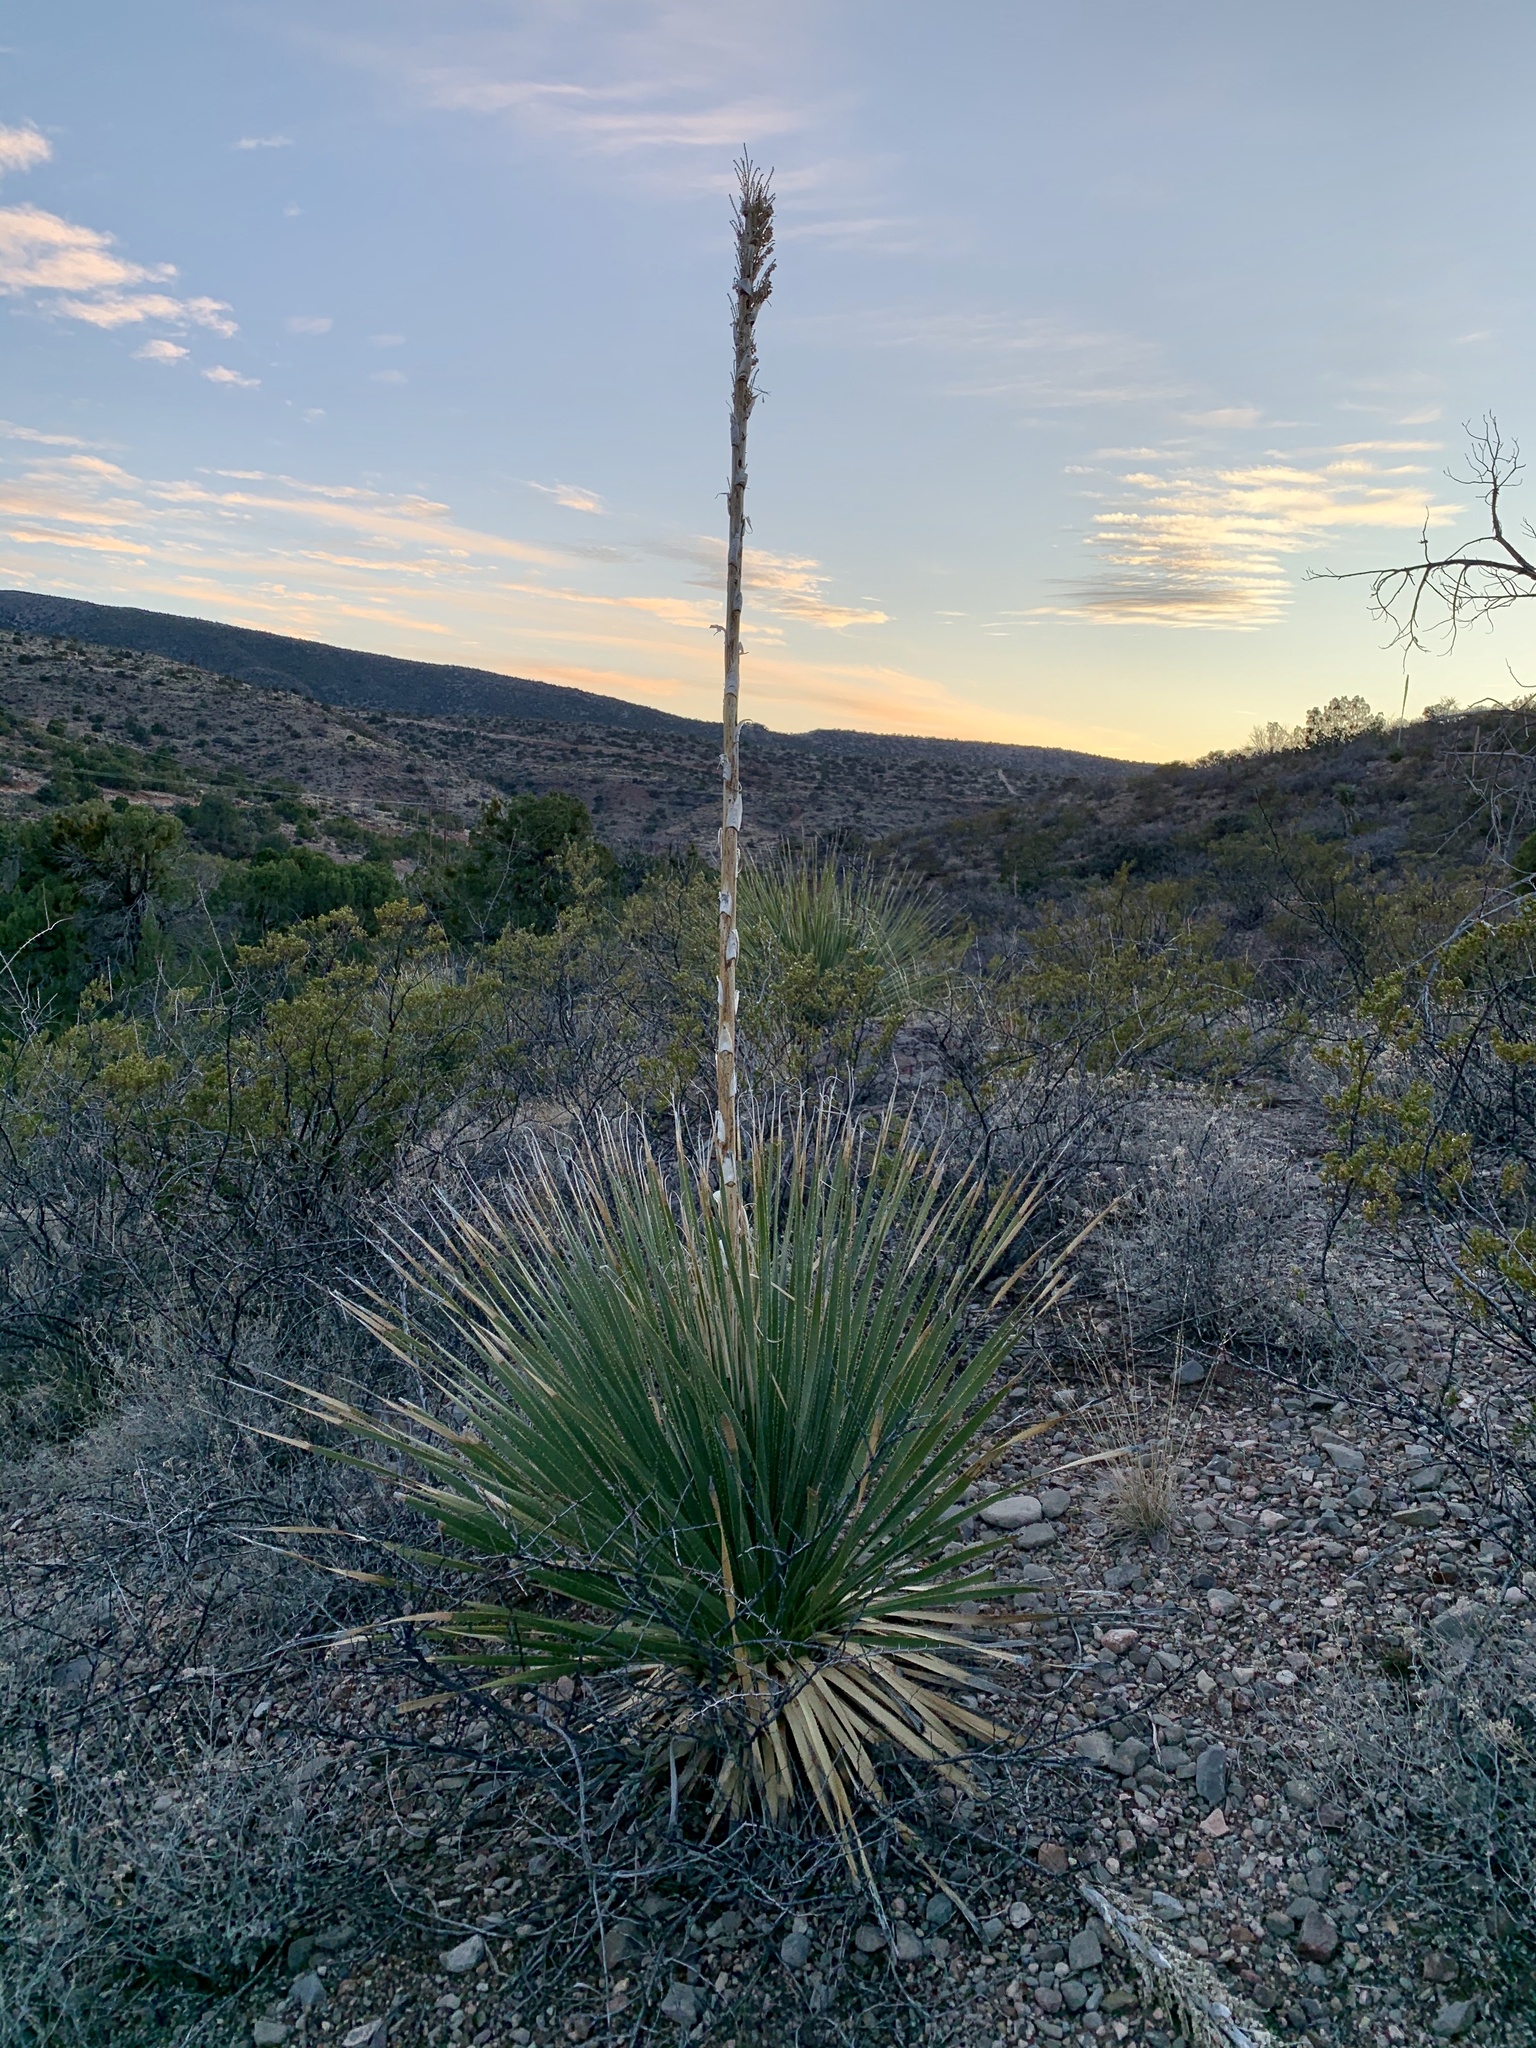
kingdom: Plantae
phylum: Tracheophyta
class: Liliopsida
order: Asparagales
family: Asparagaceae
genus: Dasylirion
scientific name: Dasylirion wheeleri
